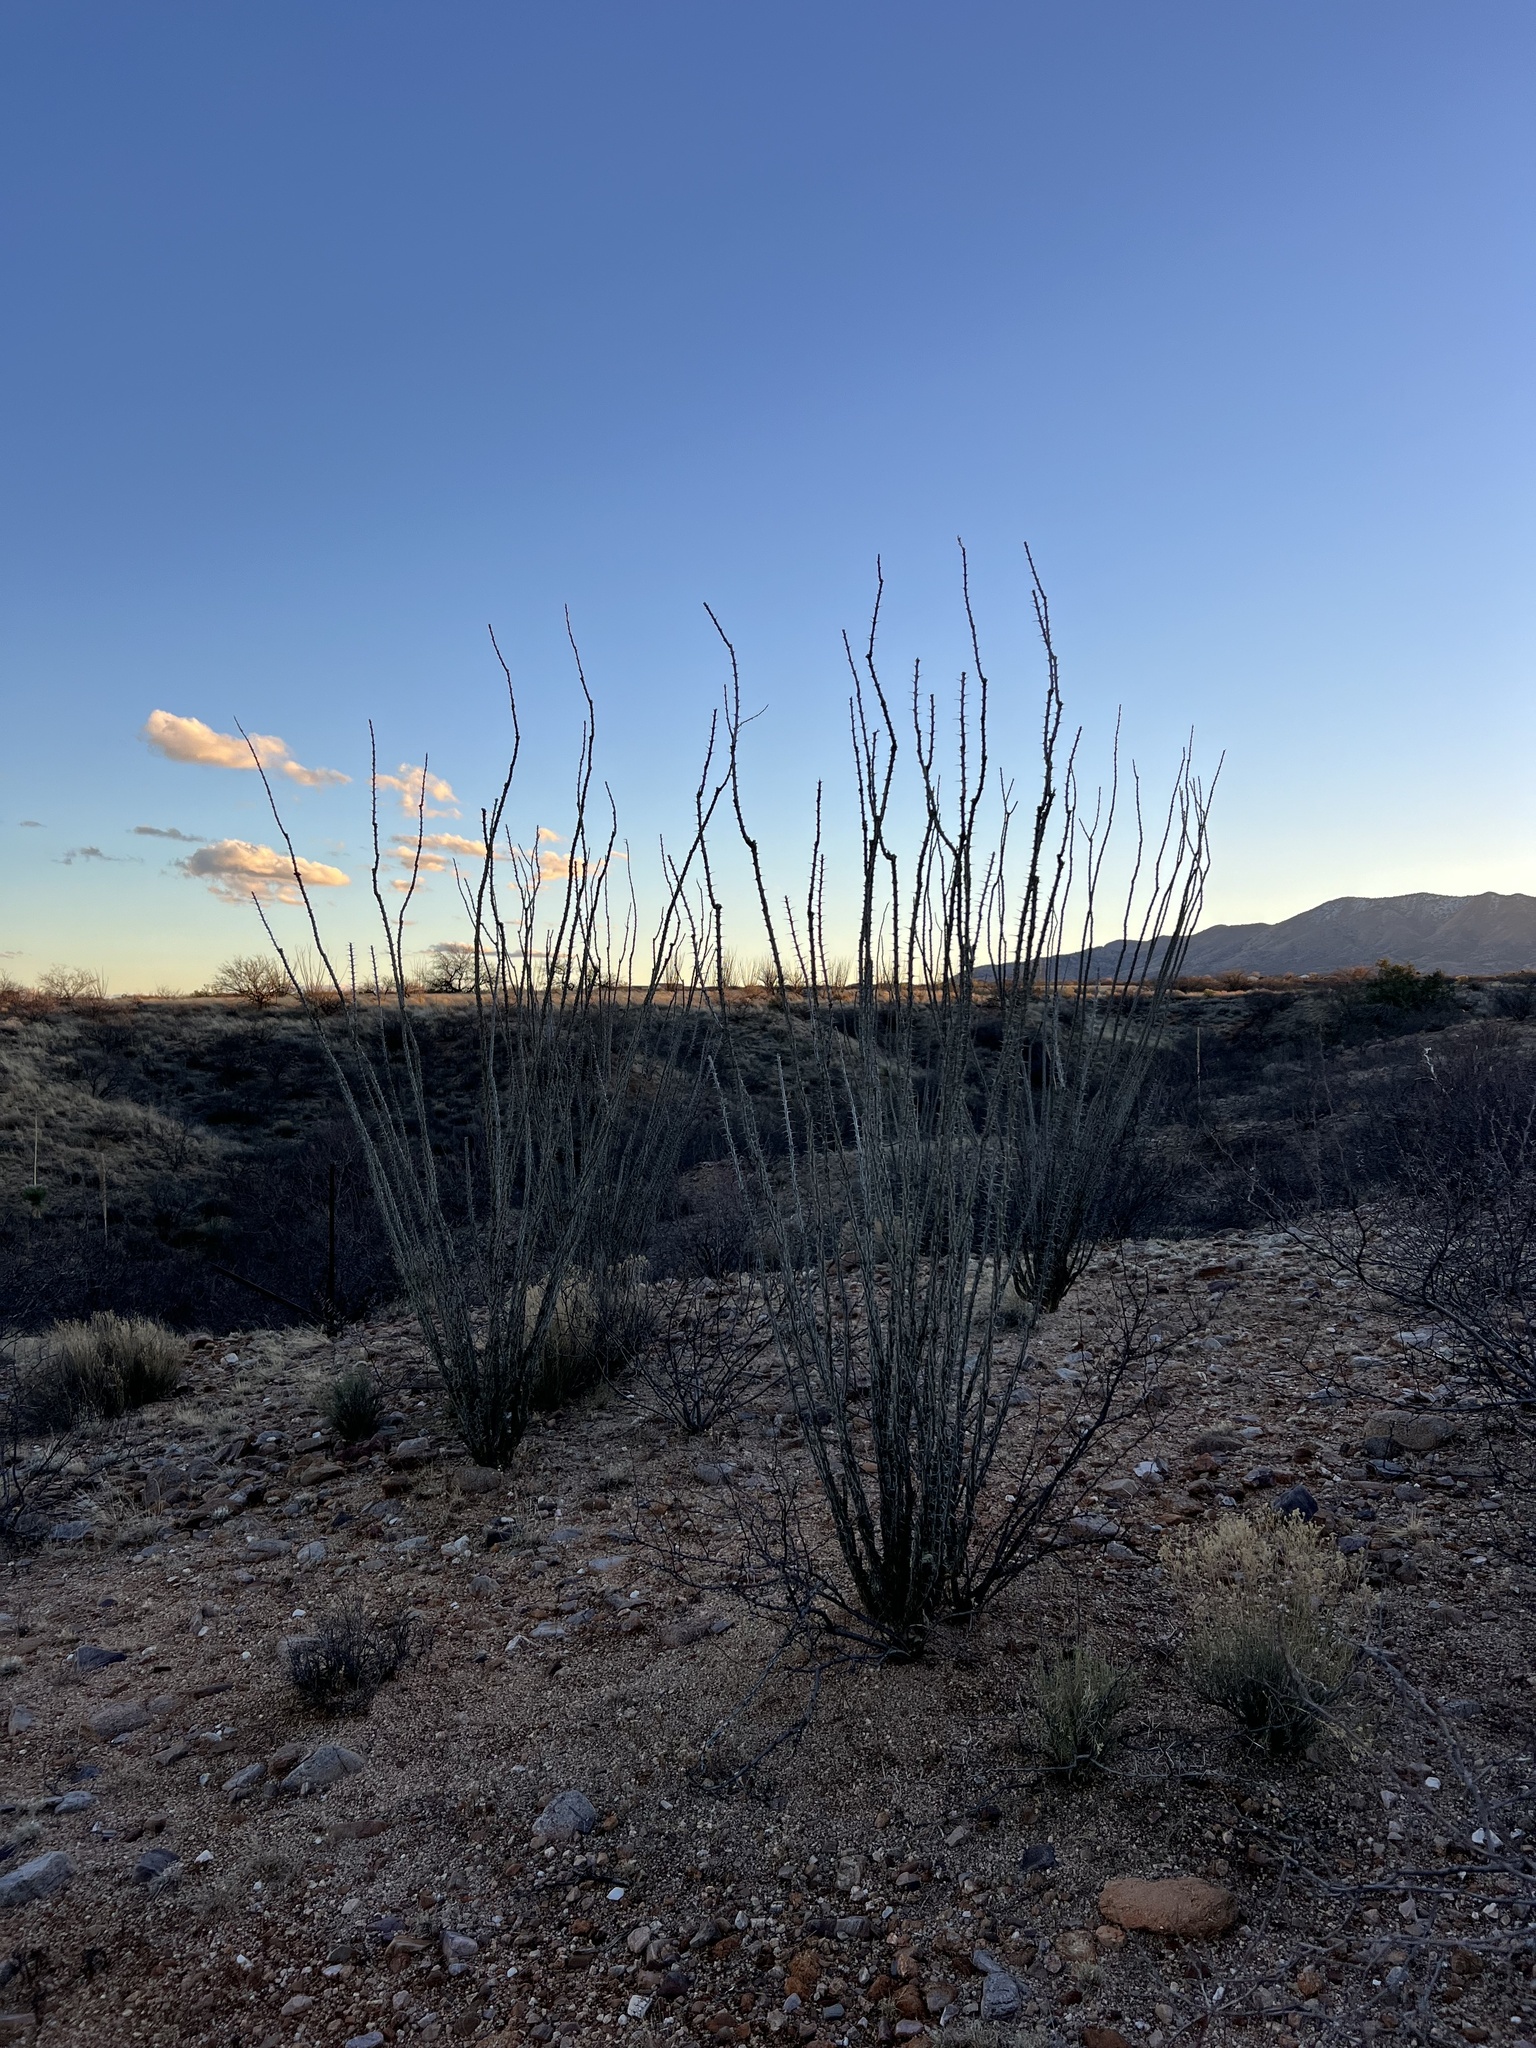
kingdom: Plantae
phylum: Tracheophyta
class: Magnoliopsida
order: Ericales
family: Fouquieriaceae
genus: Fouquieria
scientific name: Fouquieria splendens
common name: Vine-cactus
